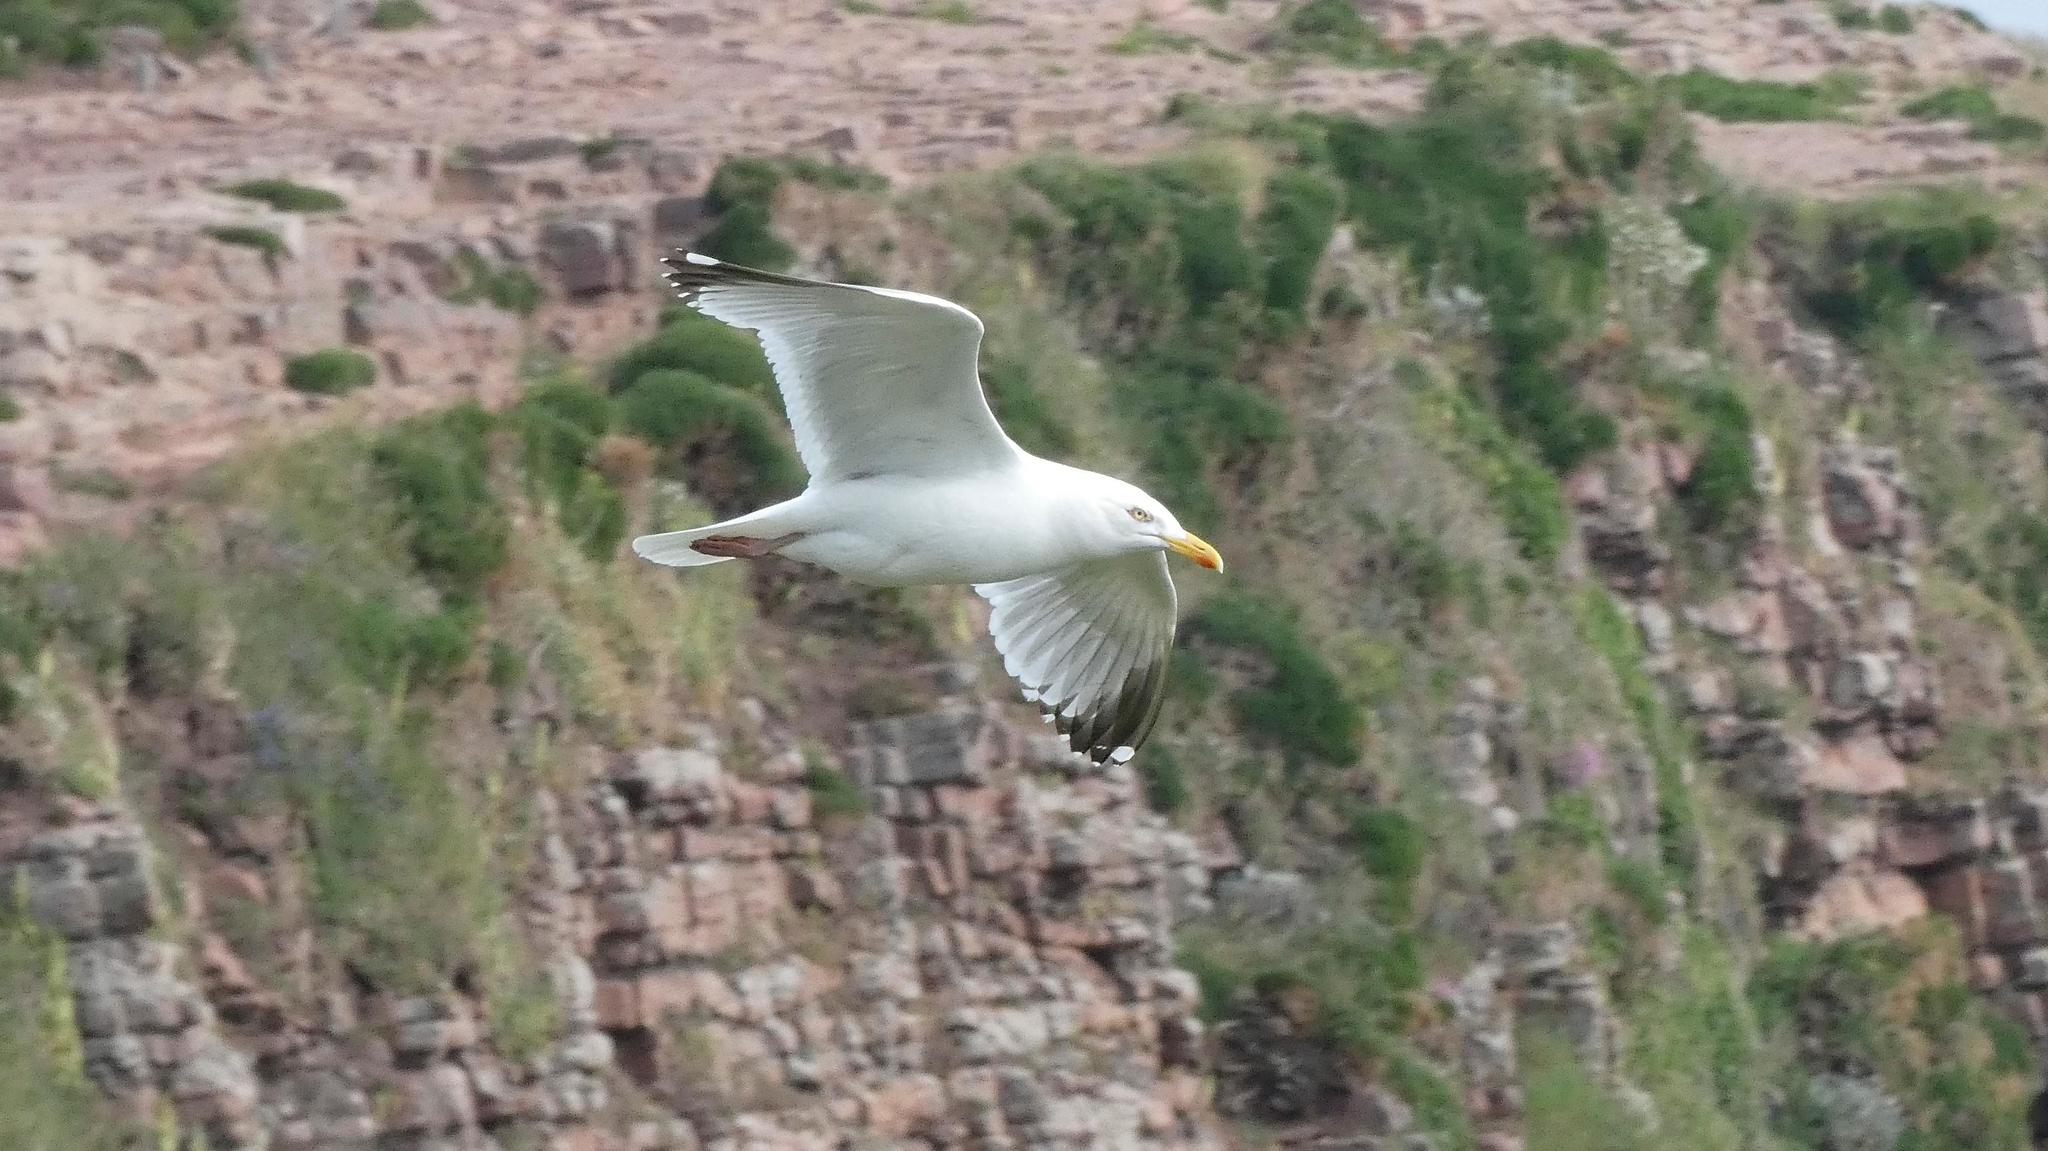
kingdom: Animalia
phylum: Chordata
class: Aves
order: Charadriiformes
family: Laridae
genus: Larus
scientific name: Larus argentatus
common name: Herring gull
